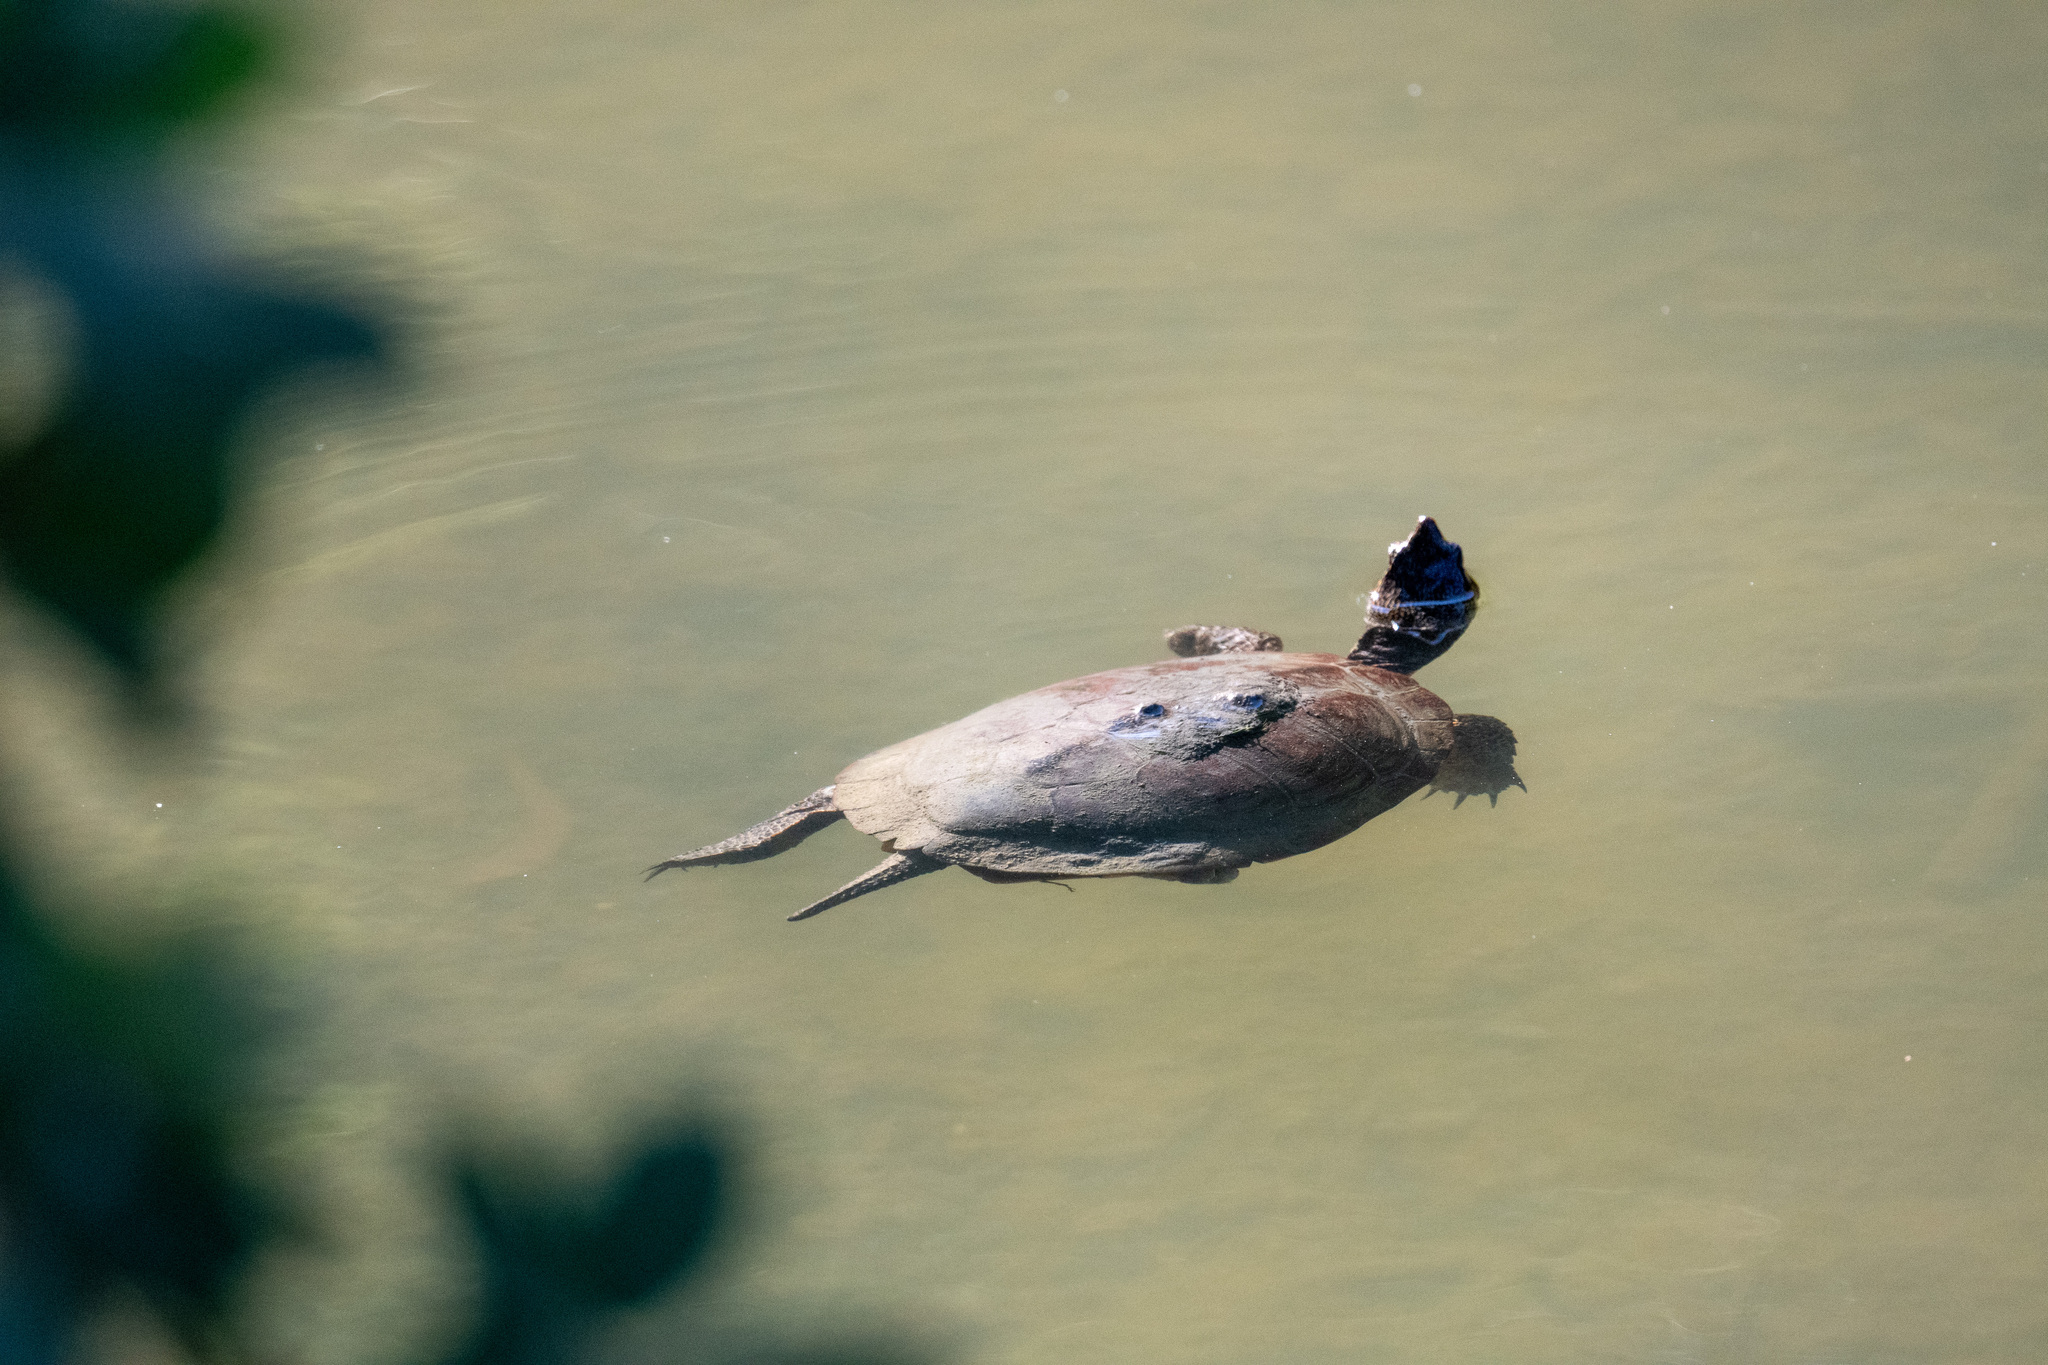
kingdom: Animalia
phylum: Chordata
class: Testudines
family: Emydidae
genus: Actinemys
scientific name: Actinemys marmorata
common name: Western pond turtle
